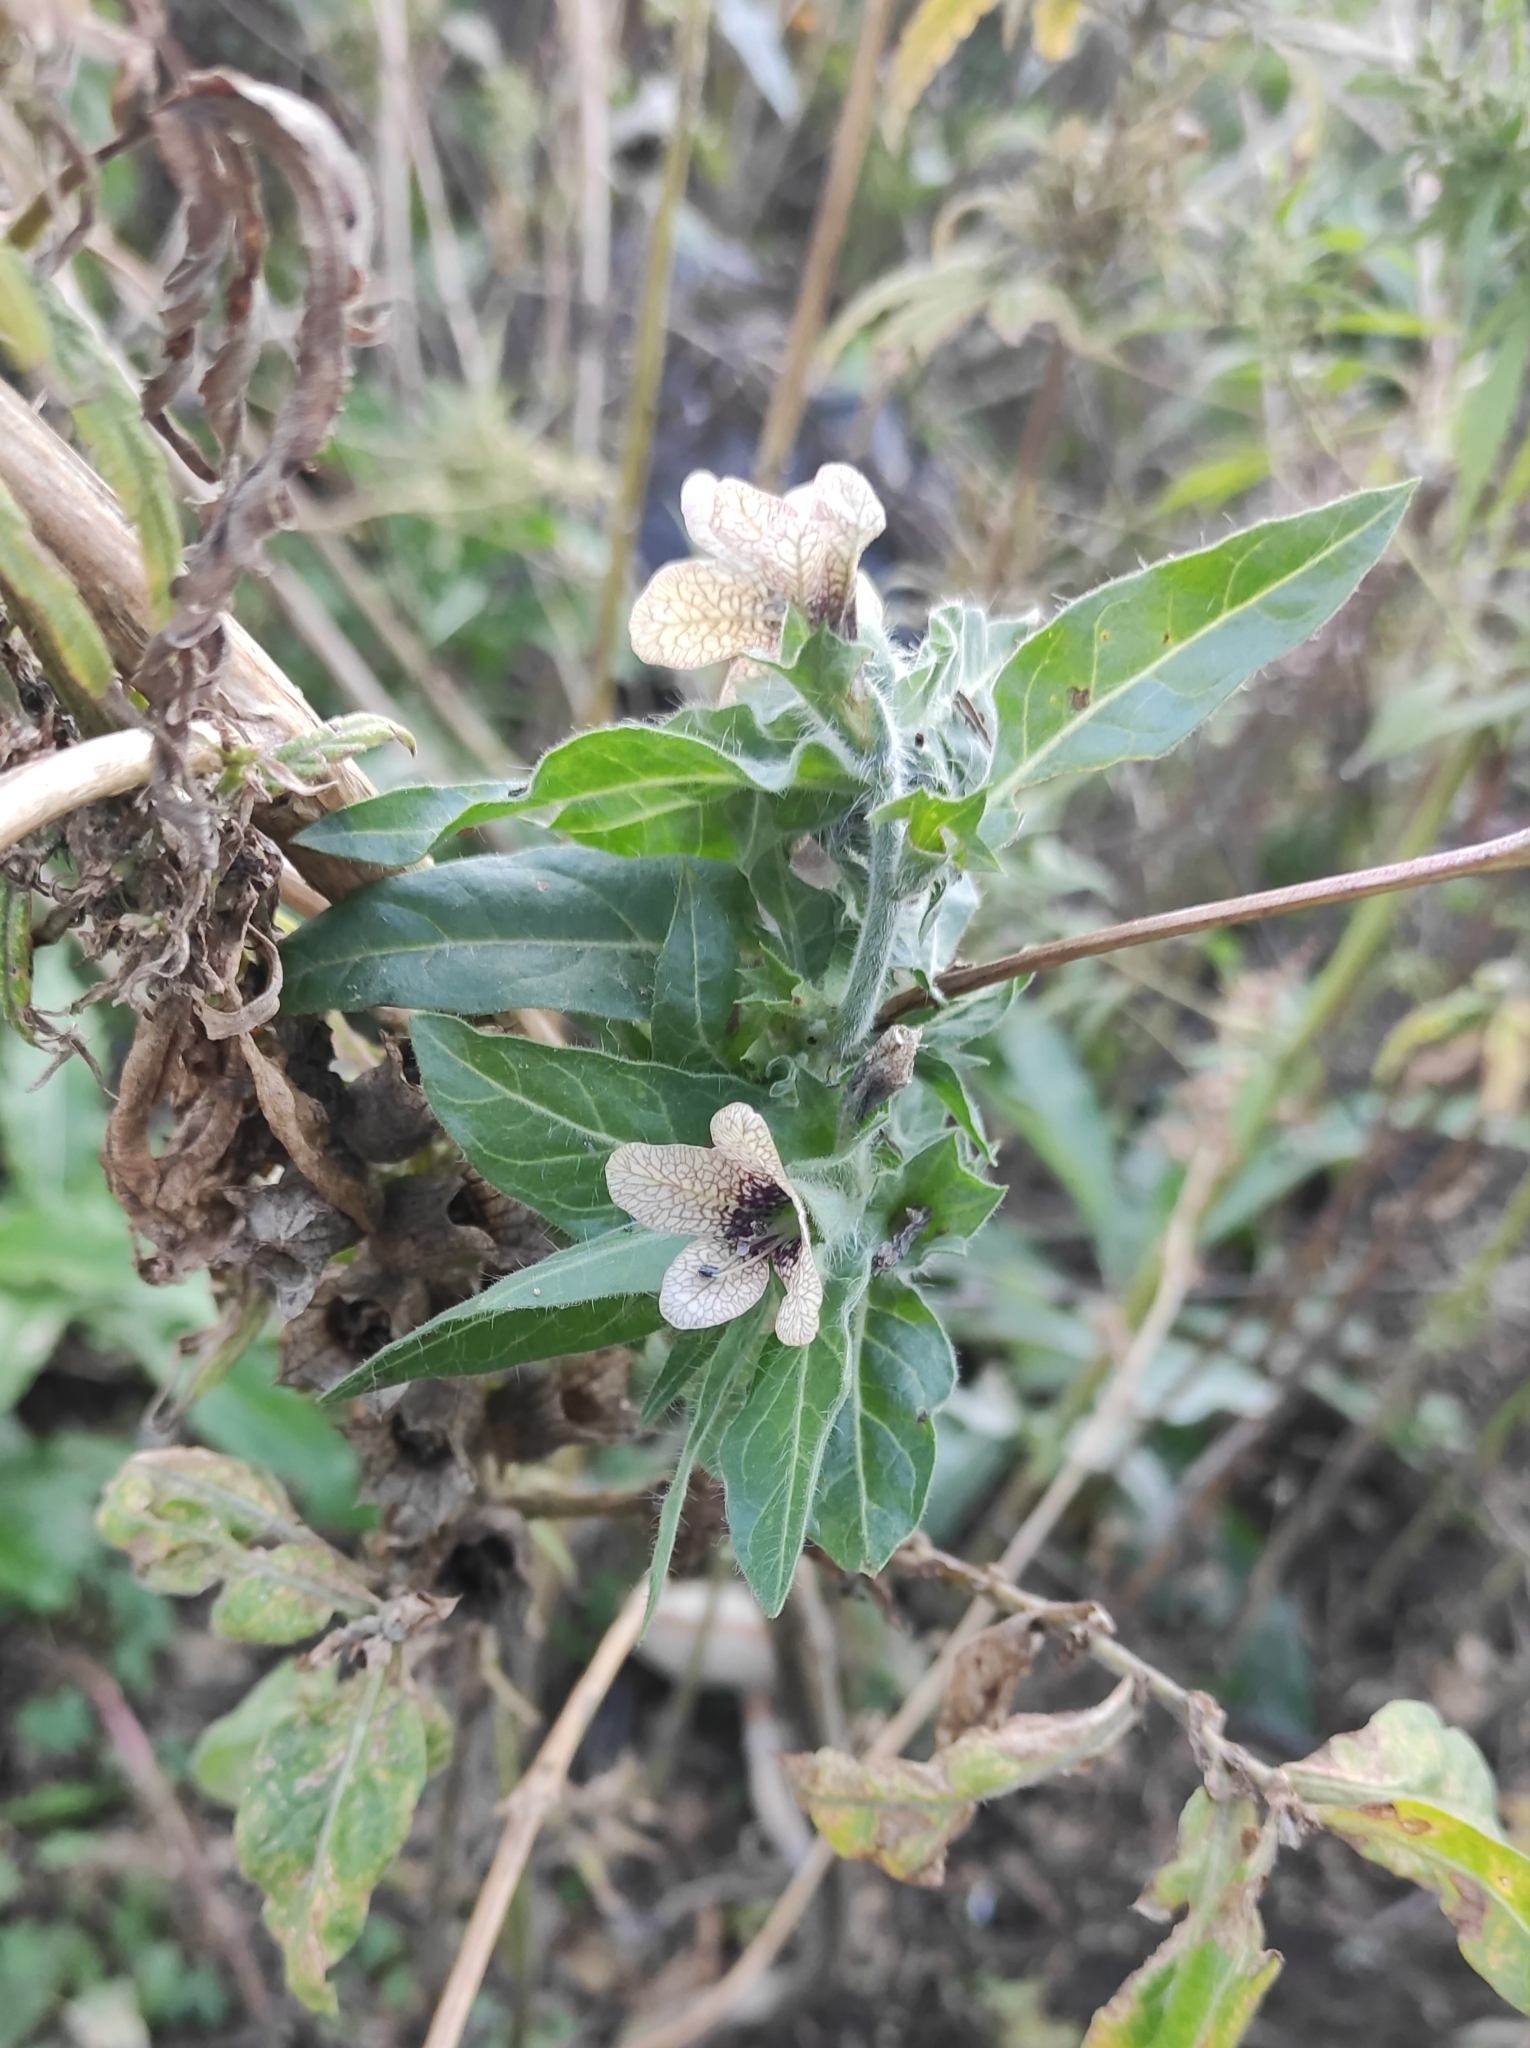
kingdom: Plantae
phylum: Tracheophyta
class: Magnoliopsida
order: Solanales
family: Solanaceae
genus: Hyoscyamus
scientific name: Hyoscyamus niger
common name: Henbane
